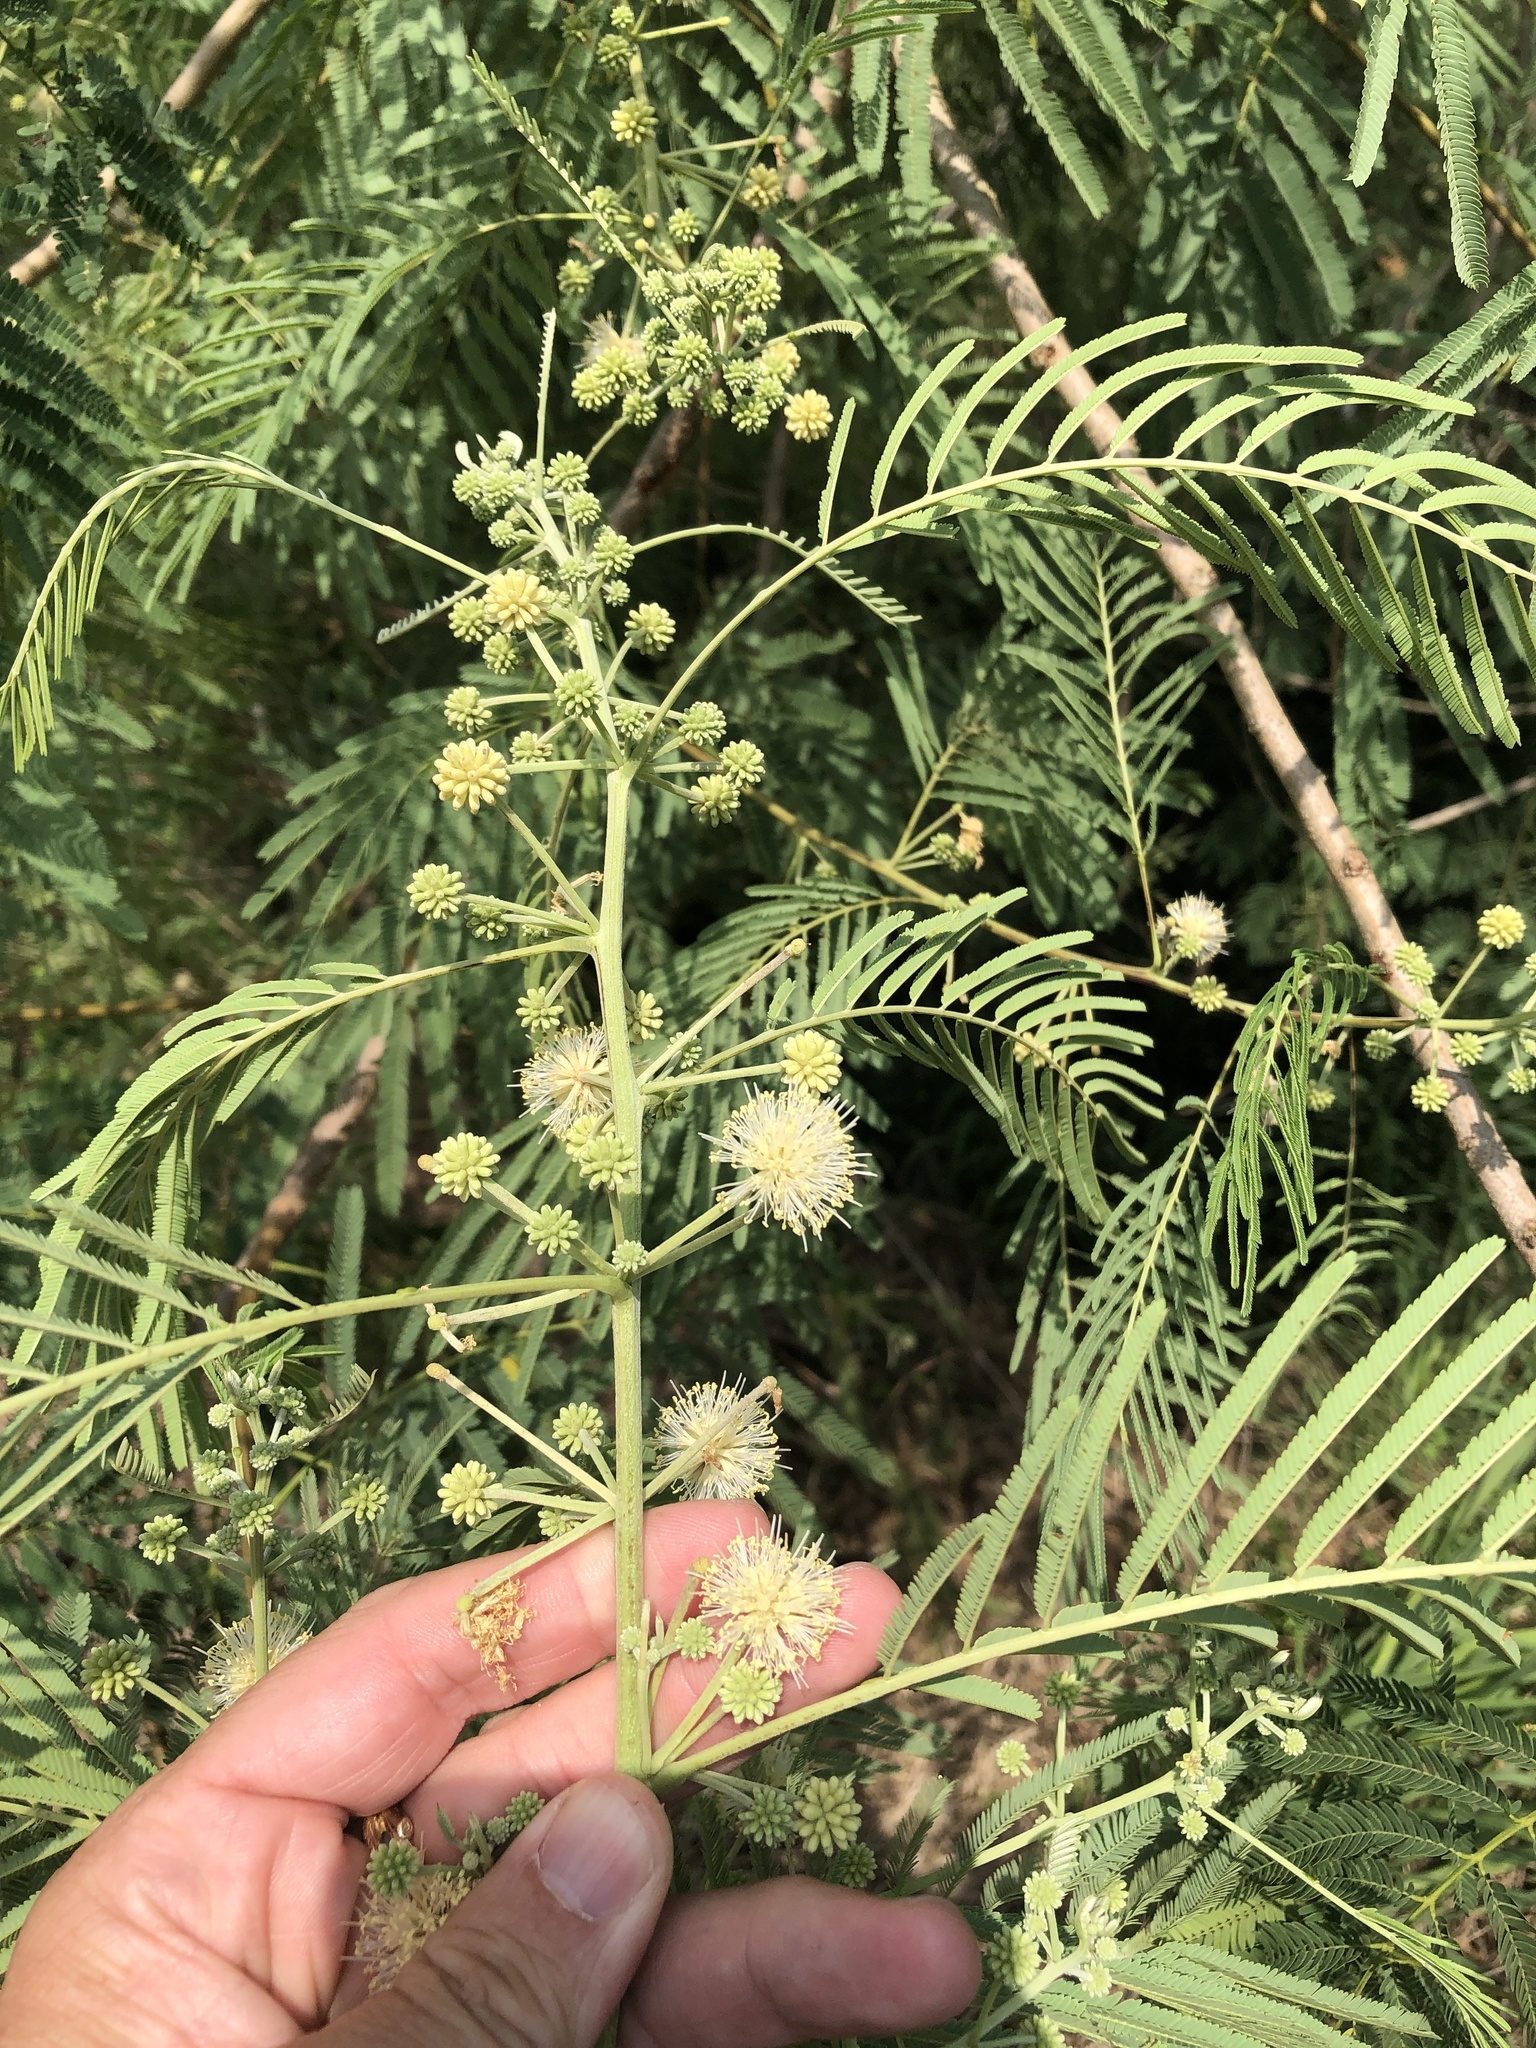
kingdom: Plantae
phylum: Tracheophyta
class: Magnoliopsida
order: Fabales
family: Fabaceae
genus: Leucaena
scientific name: Leucaena pulverulenta
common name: Great leadtree
